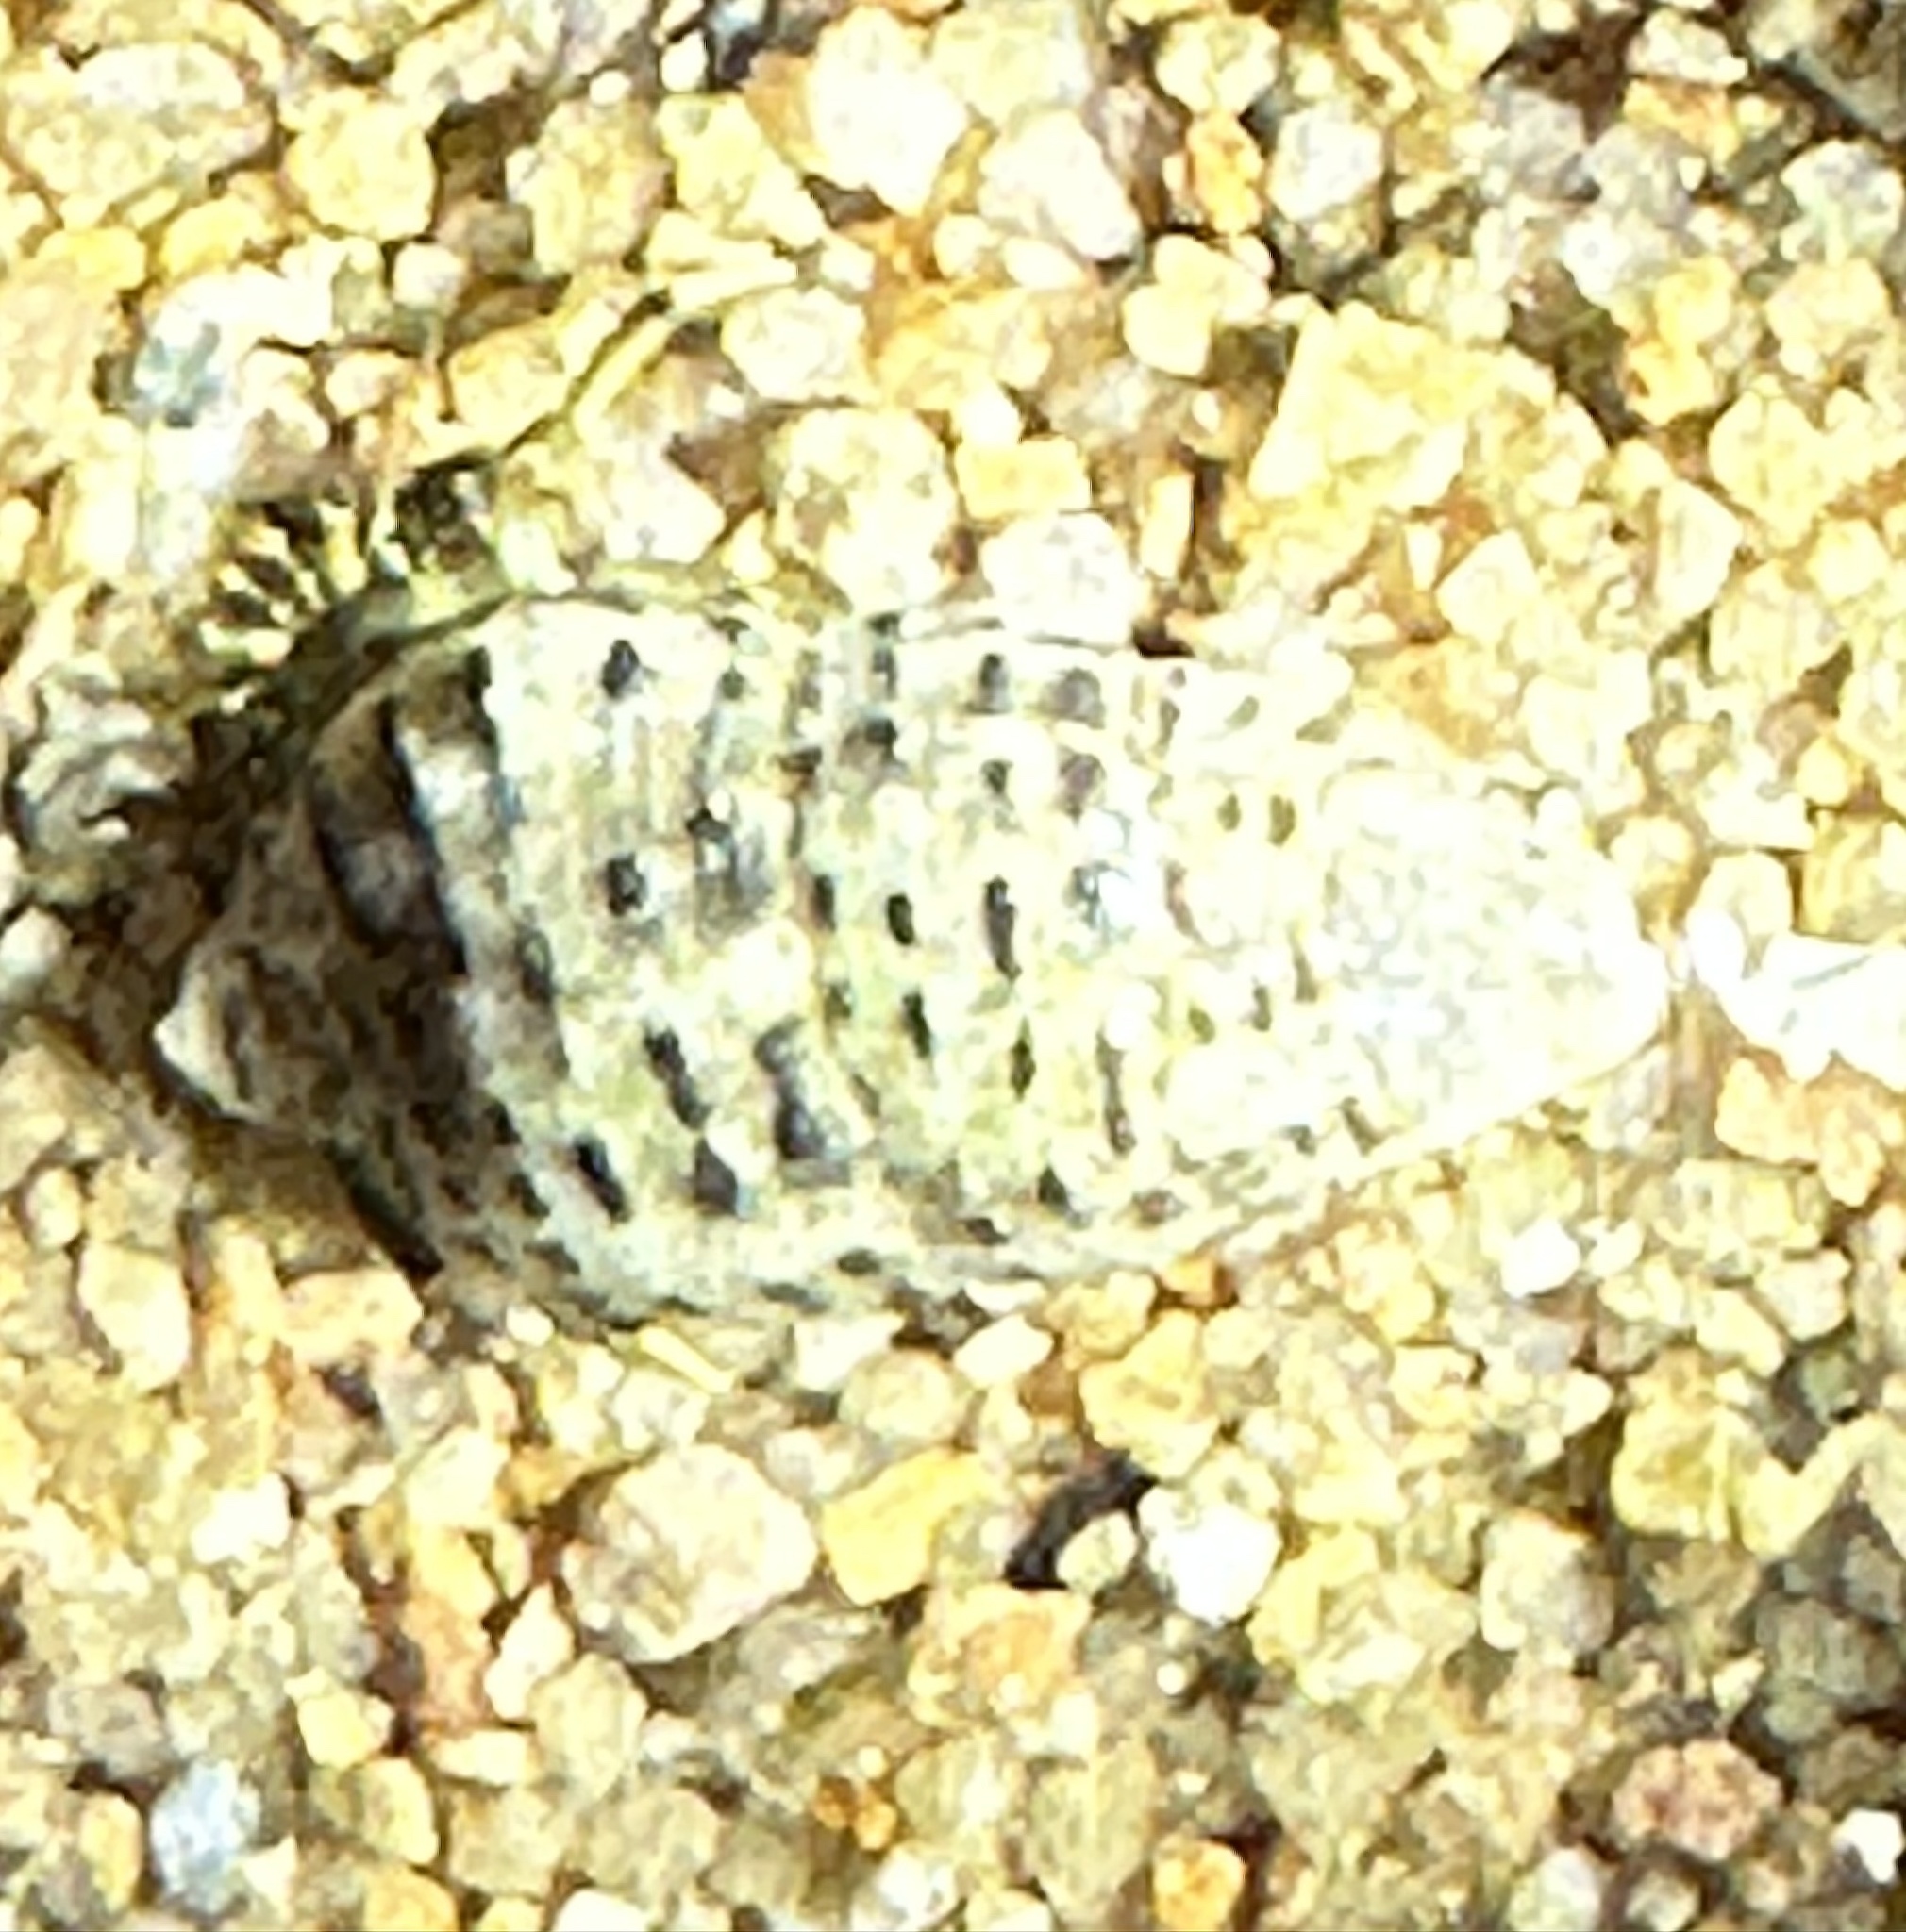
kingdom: Animalia
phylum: Mollusca
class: Gastropoda
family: Cerithiidae
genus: Clypeomorus
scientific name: Clypeomorus petrosa
